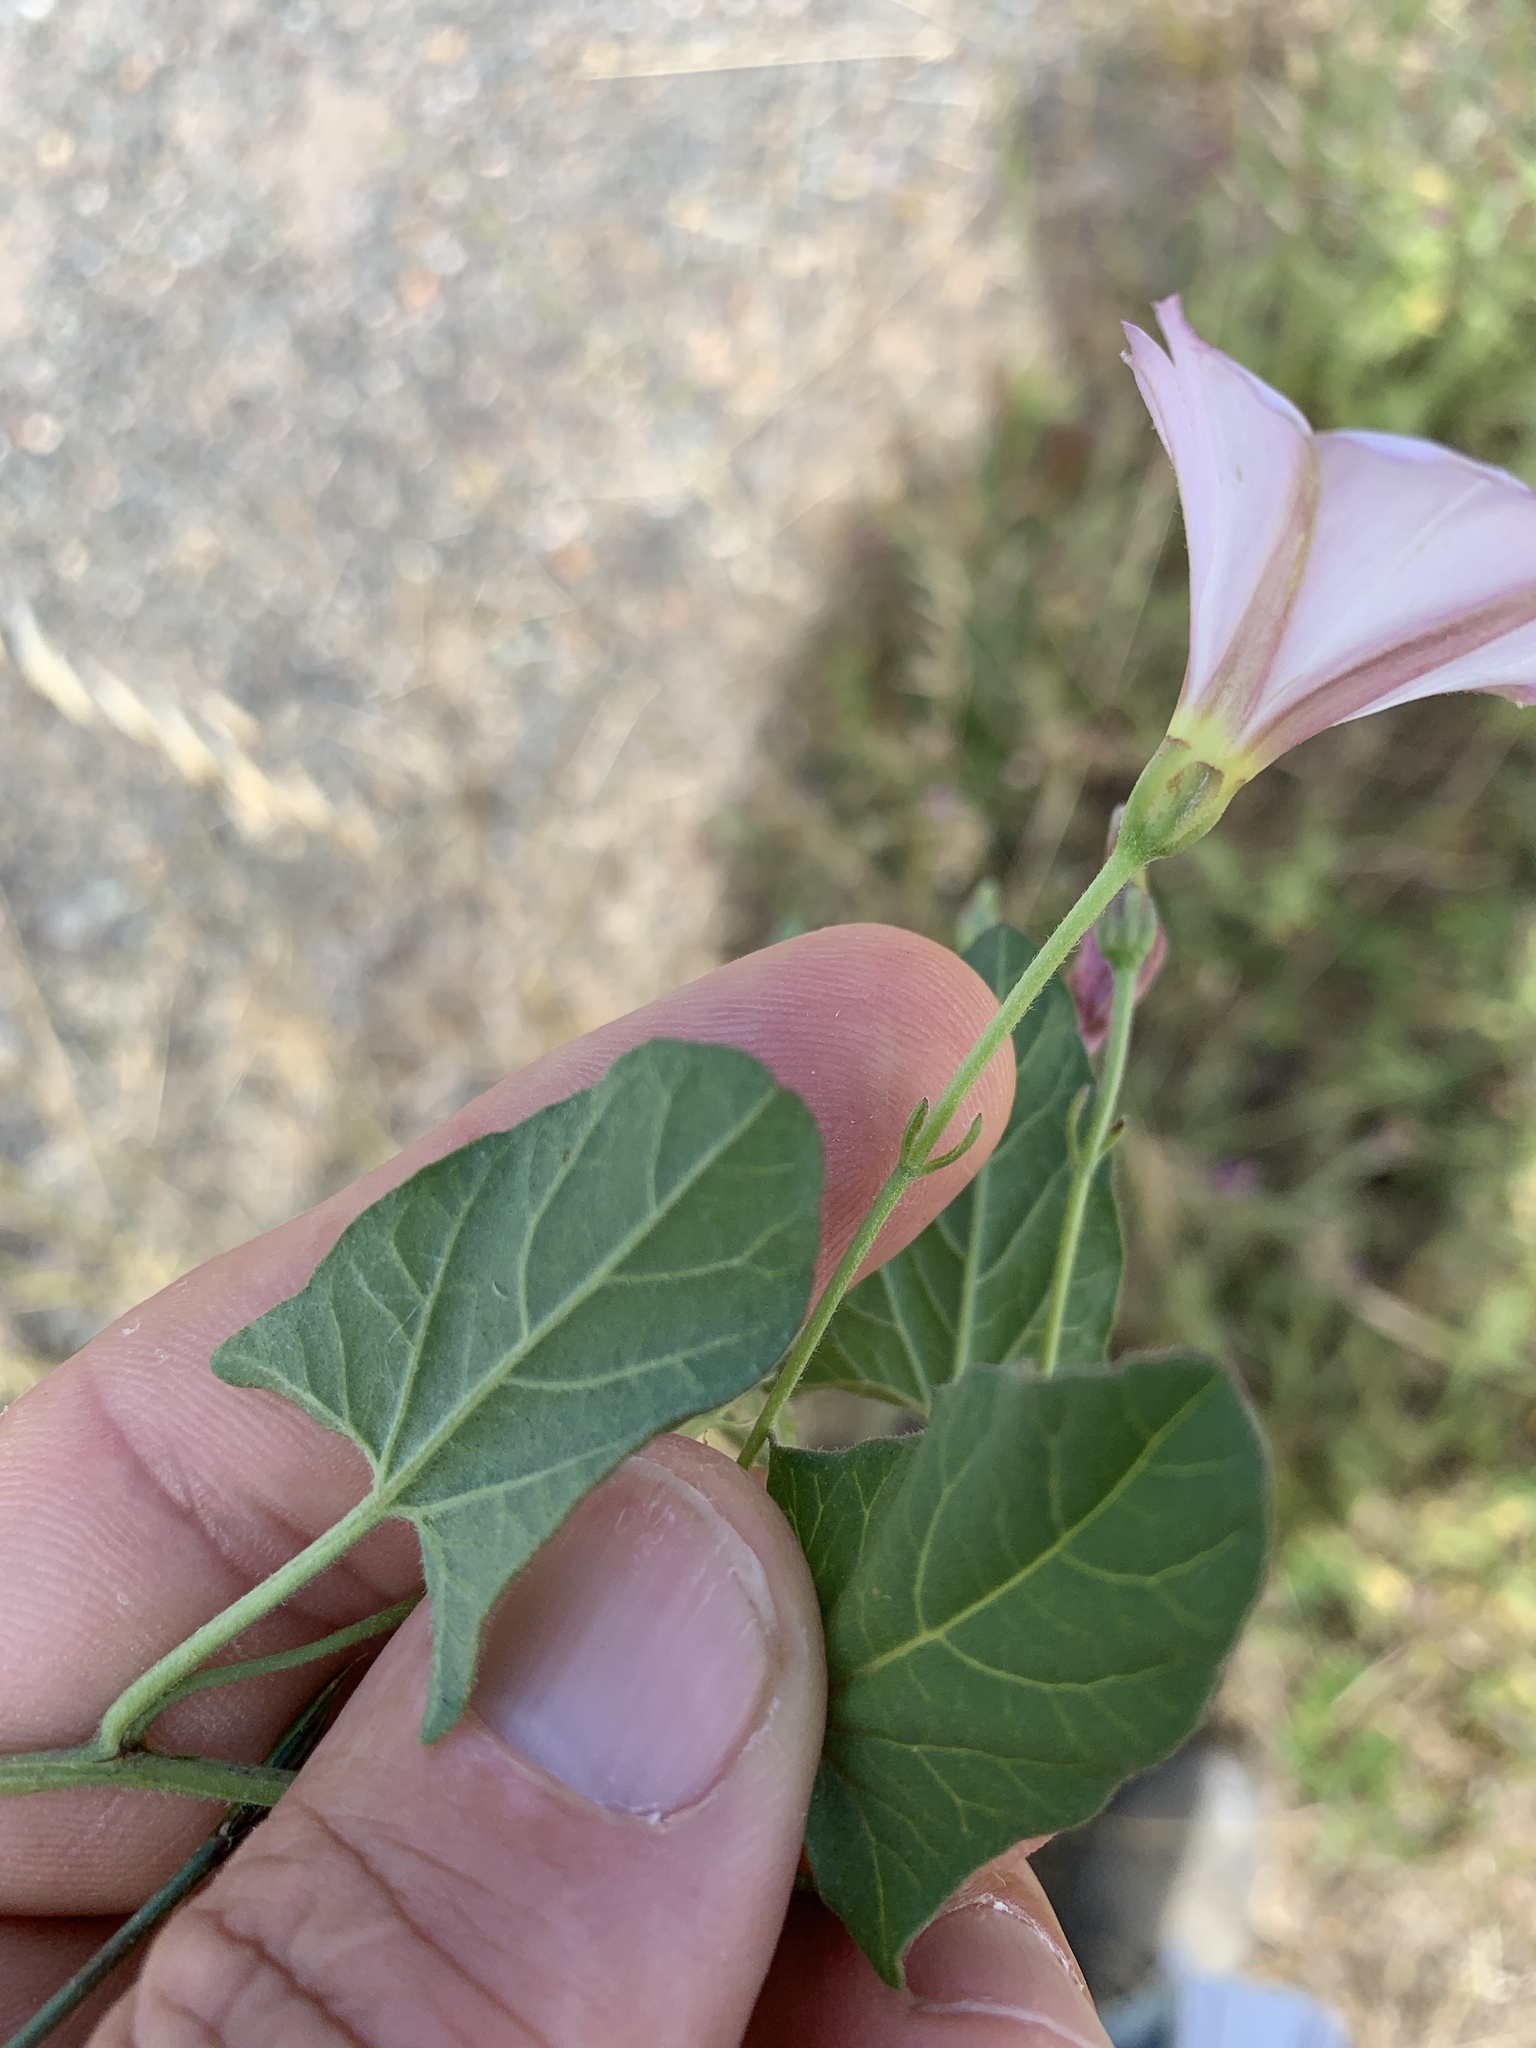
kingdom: Plantae
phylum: Tracheophyta
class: Magnoliopsida
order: Solanales
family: Convolvulaceae
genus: Convolvulus
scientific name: Convolvulus arvensis
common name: Field bindweed
